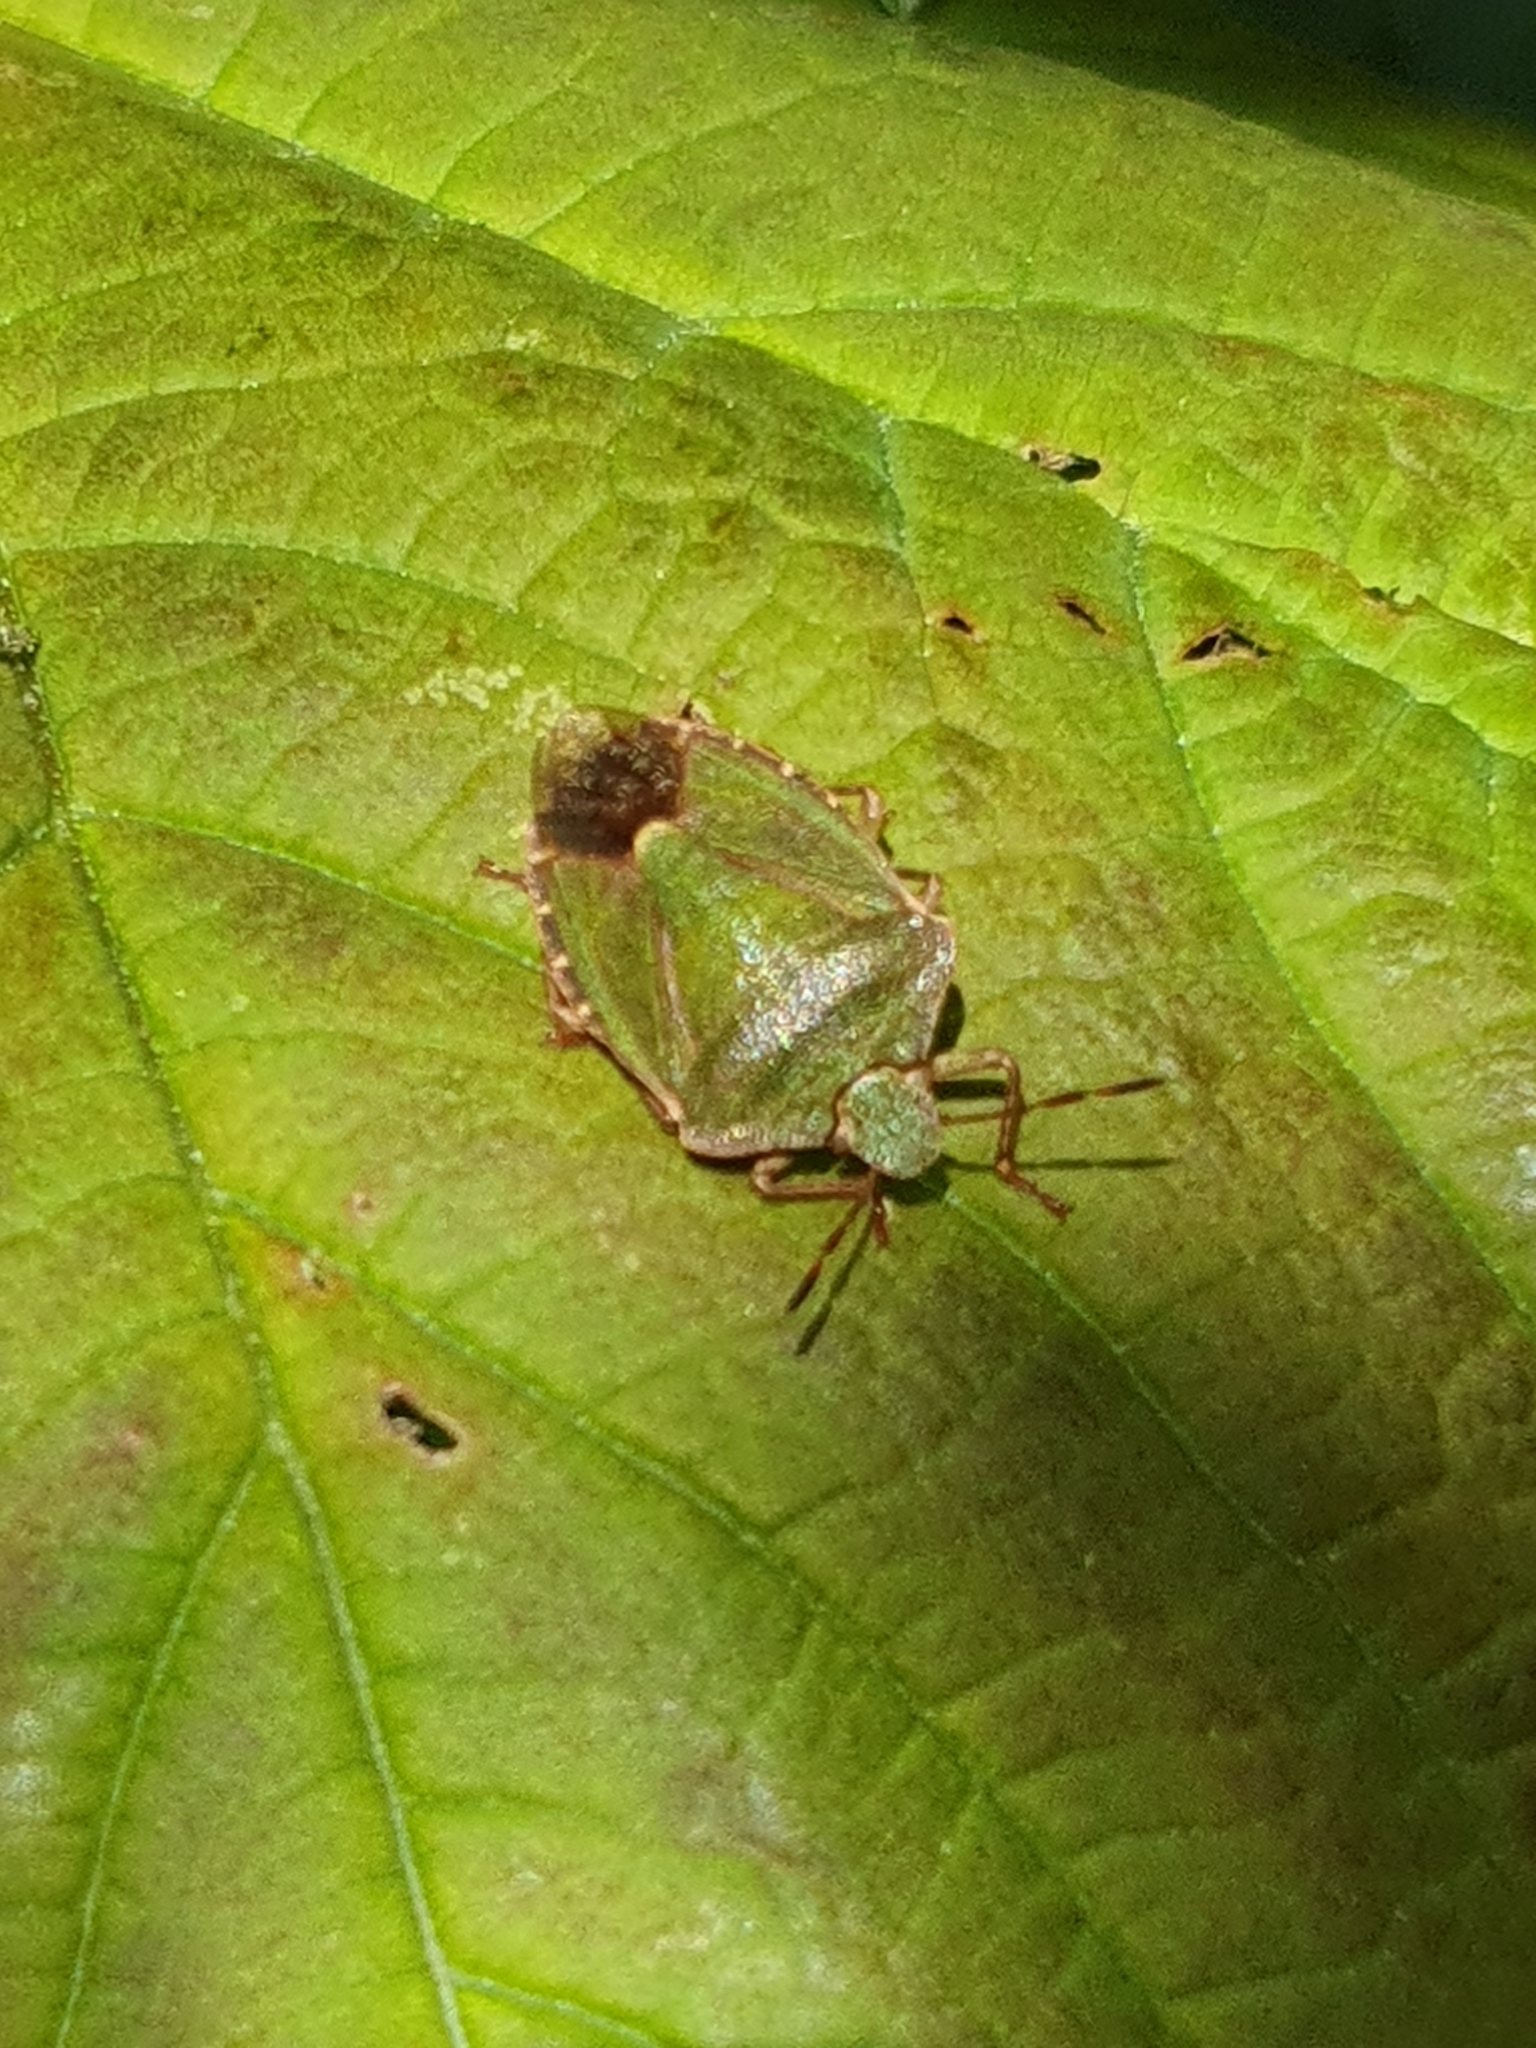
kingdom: Animalia
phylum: Arthropoda
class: Insecta
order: Hemiptera
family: Pentatomidae
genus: Palomena
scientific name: Palomena prasina
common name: Green shieldbug
